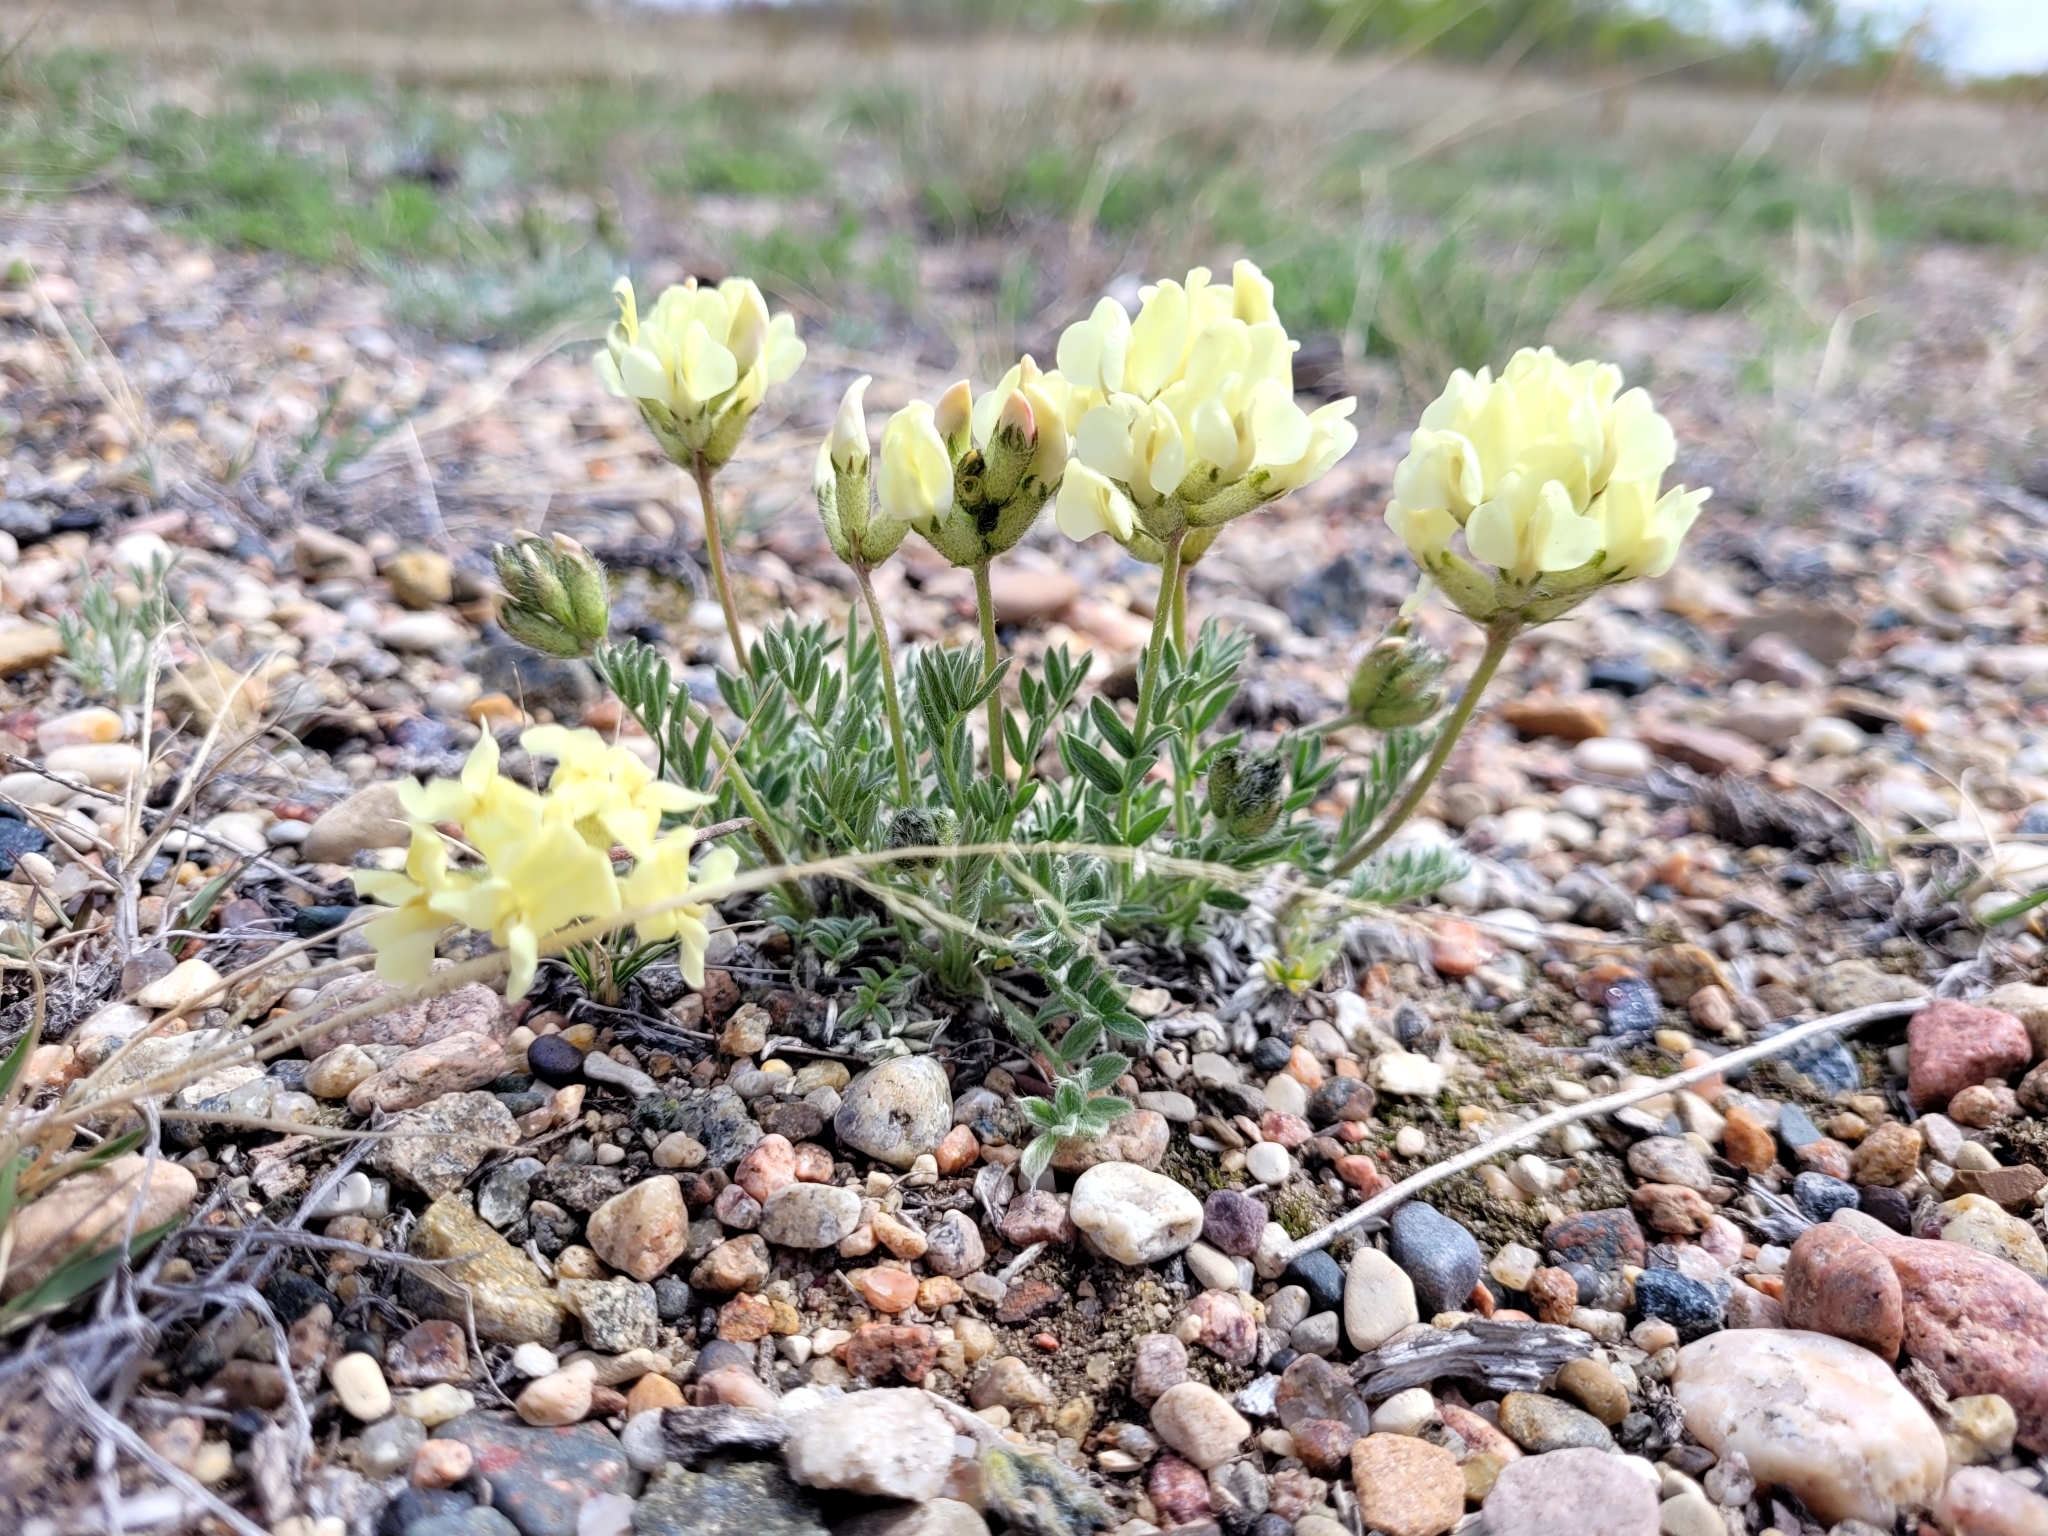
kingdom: Plantae
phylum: Tracheophyta
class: Magnoliopsida
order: Fabales
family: Fabaceae
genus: Oxytropis
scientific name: Oxytropis sericea
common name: Silky locoweed
